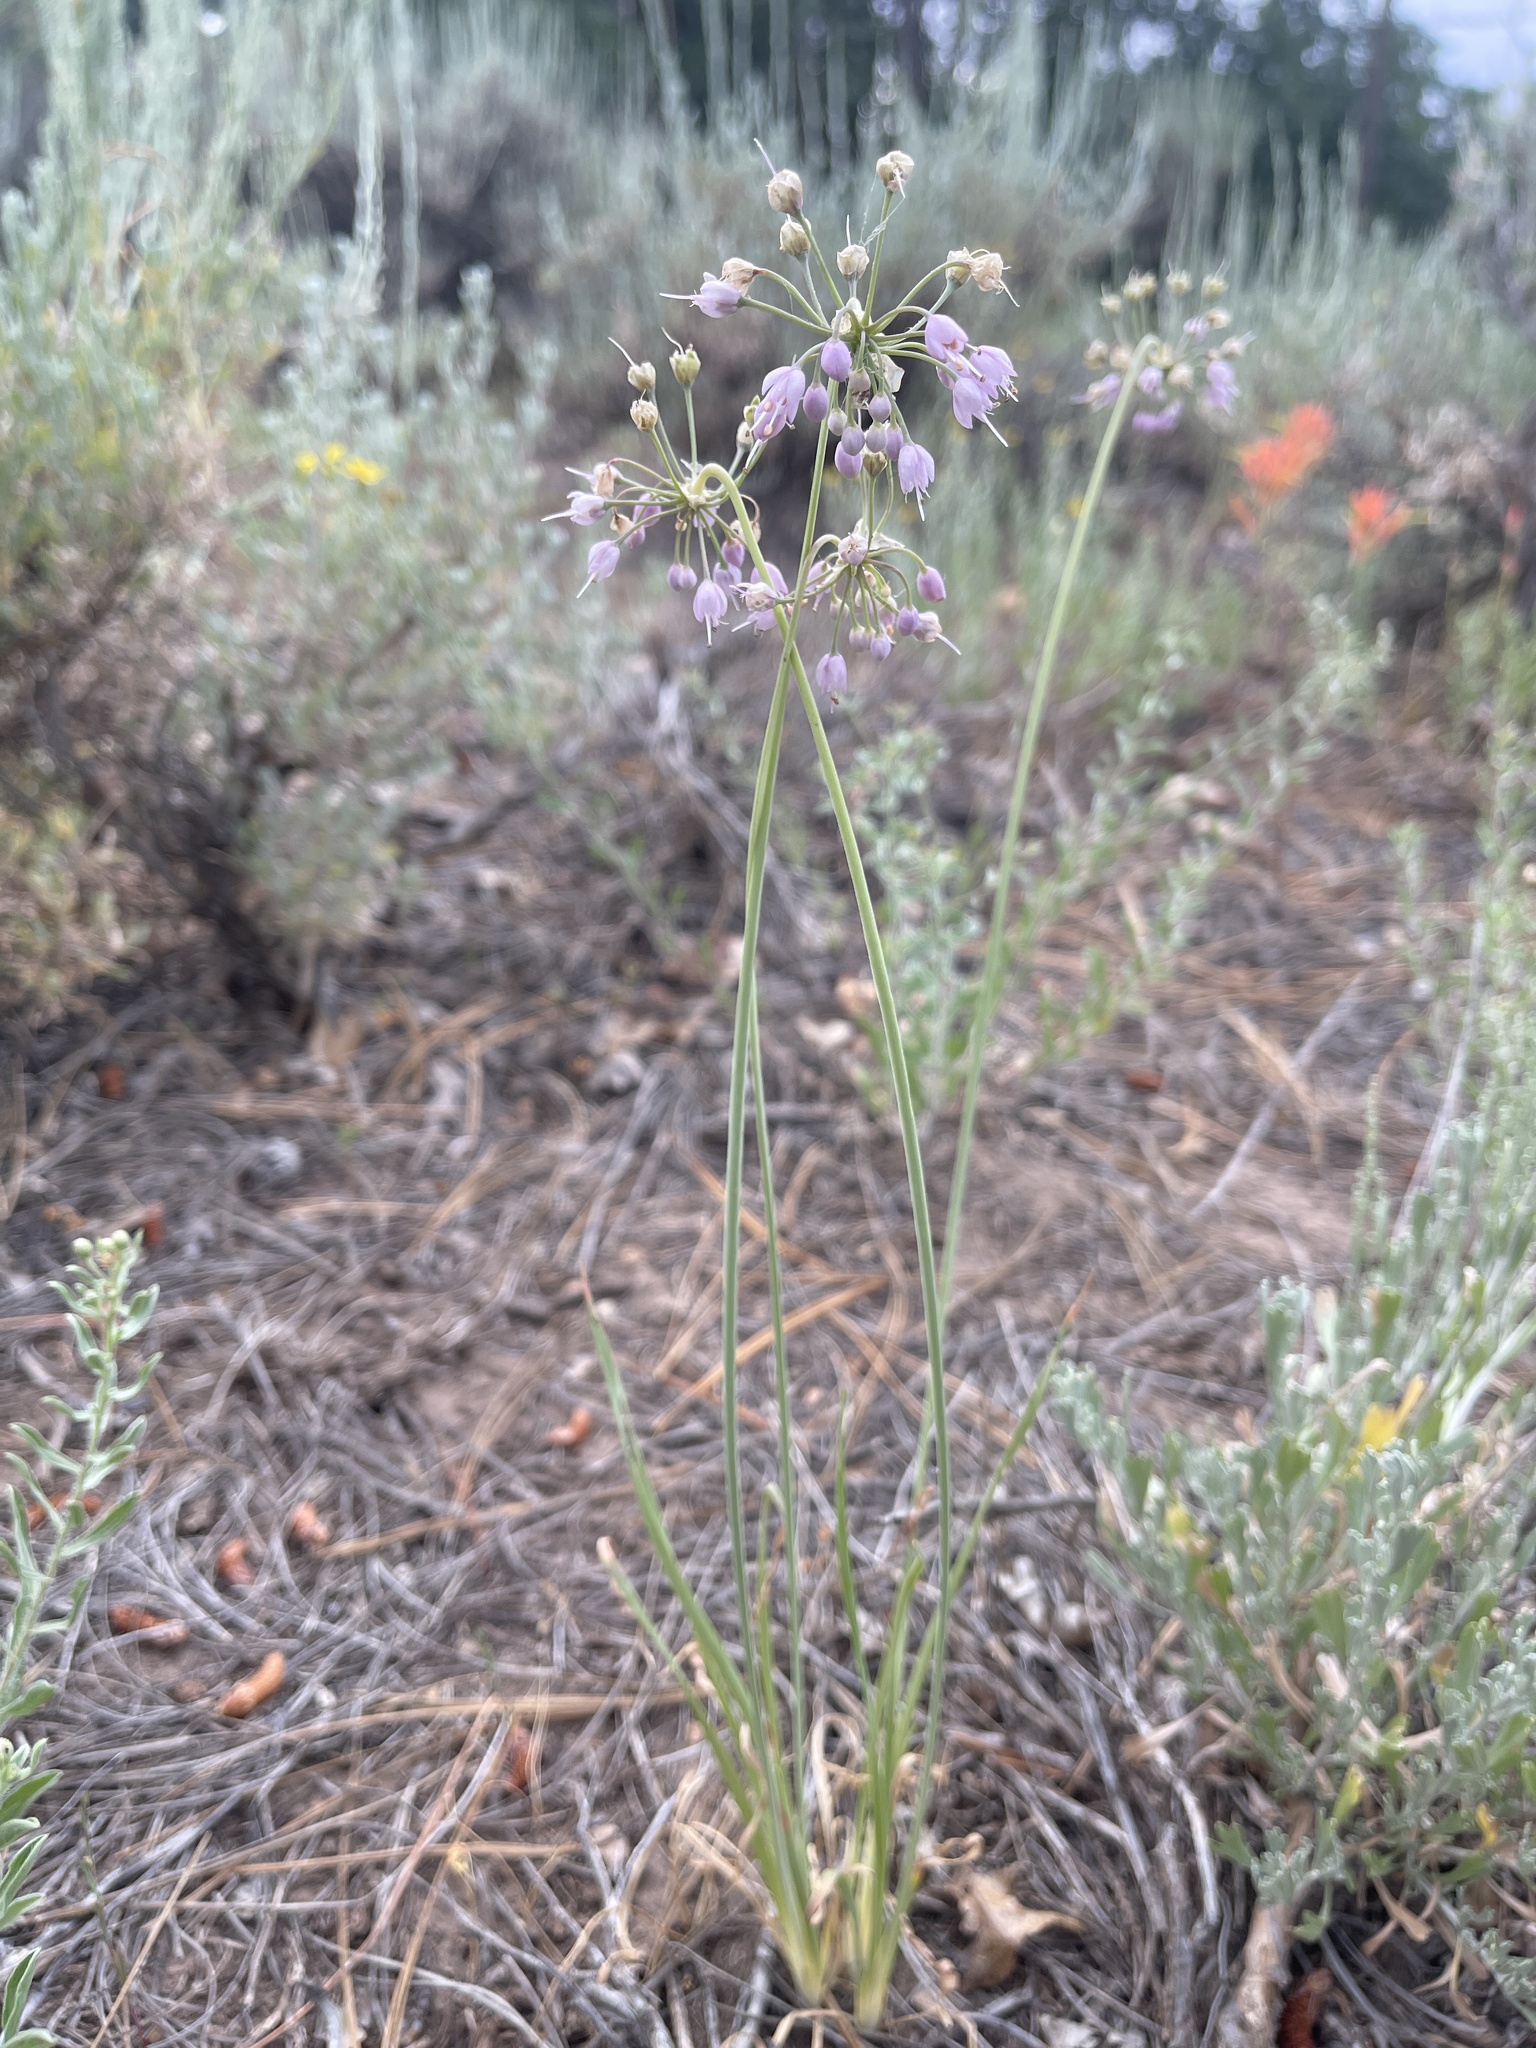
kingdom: Plantae
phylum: Tracheophyta
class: Liliopsida
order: Asparagales
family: Amaryllidaceae
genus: Allium
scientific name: Allium cernuum
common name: Nodding onion
